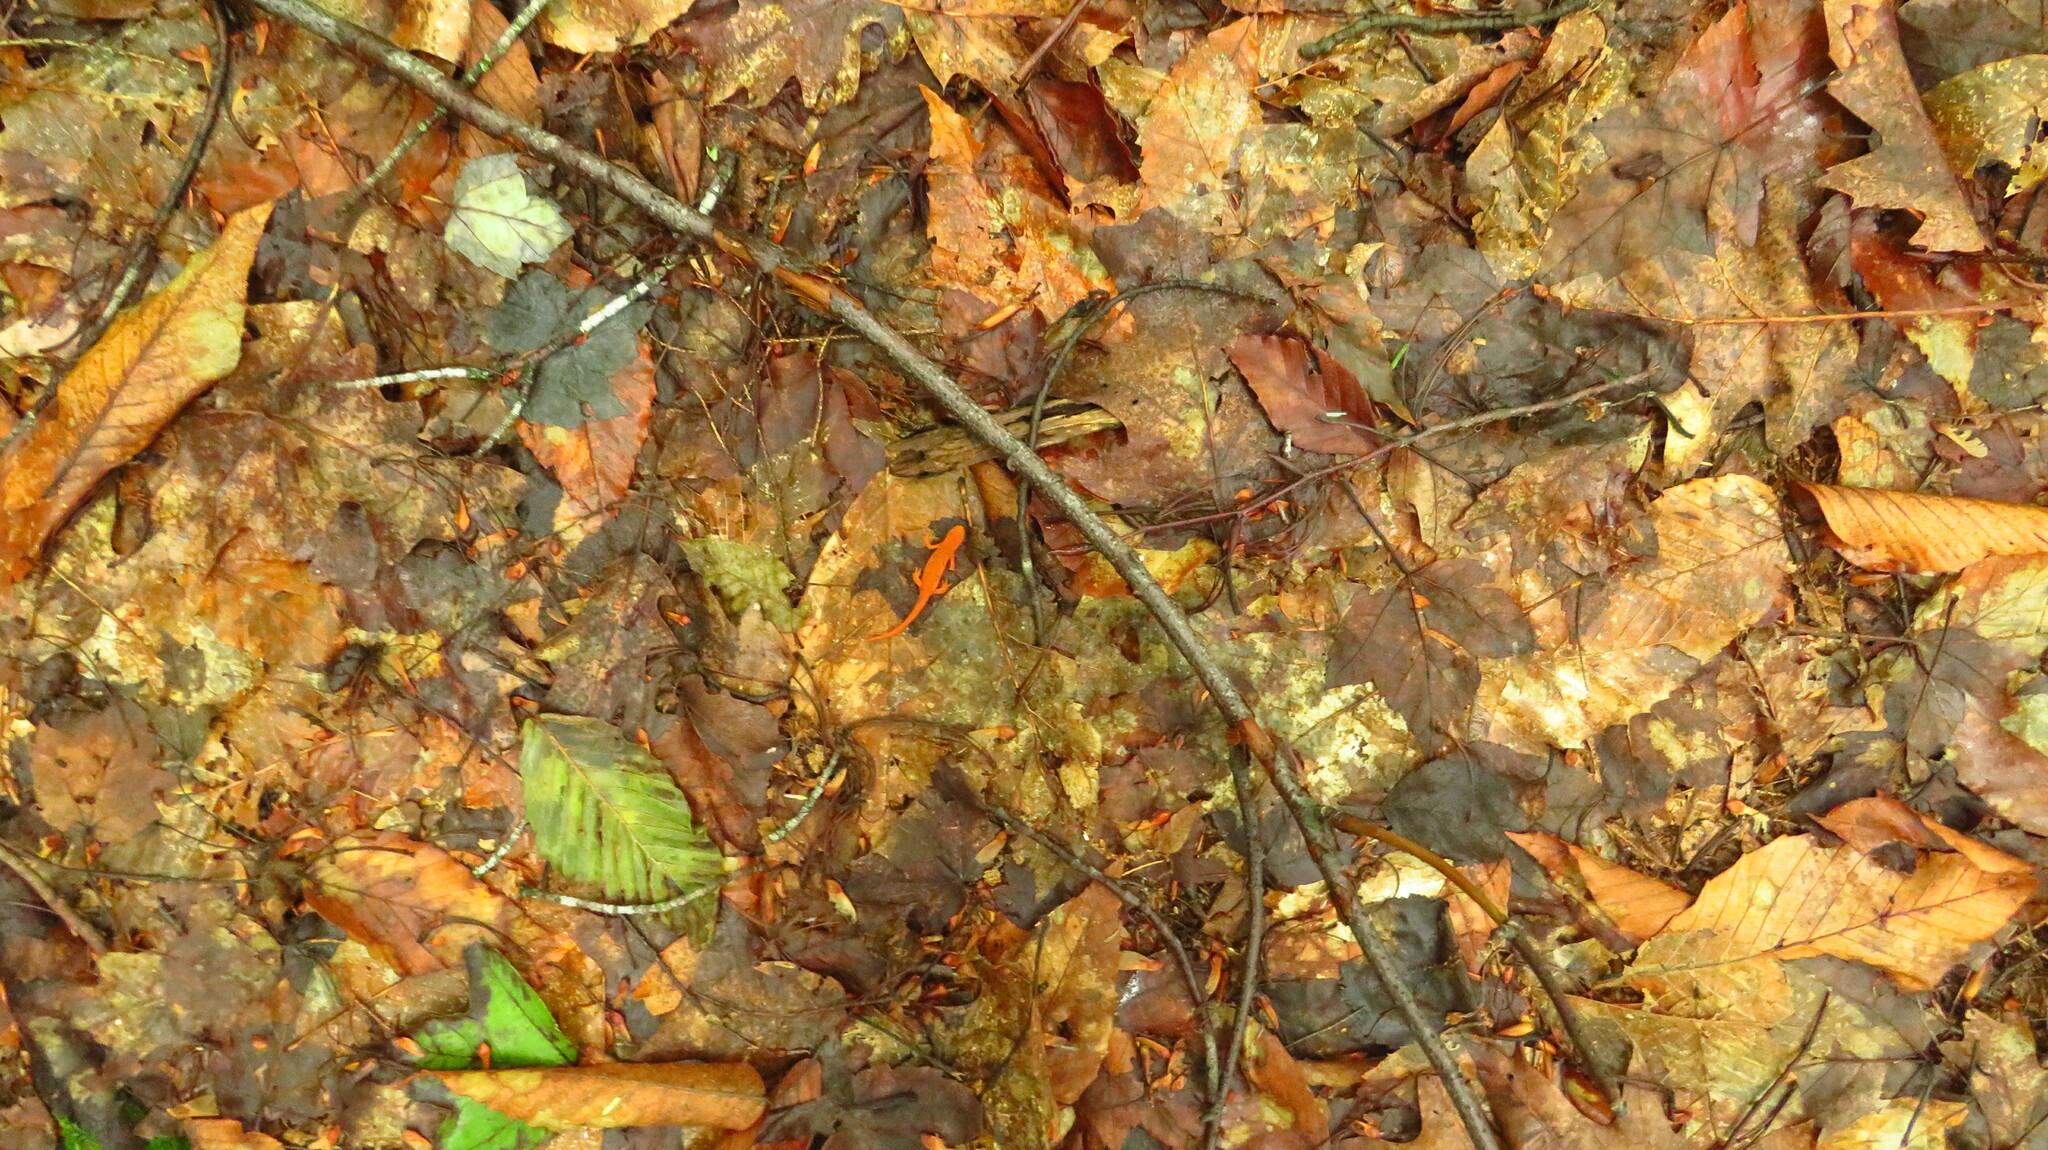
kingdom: Animalia
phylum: Chordata
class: Amphibia
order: Caudata
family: Salamandridae
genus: Notophthalmus
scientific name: Notophthalmus viridescens
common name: Eastern newt
